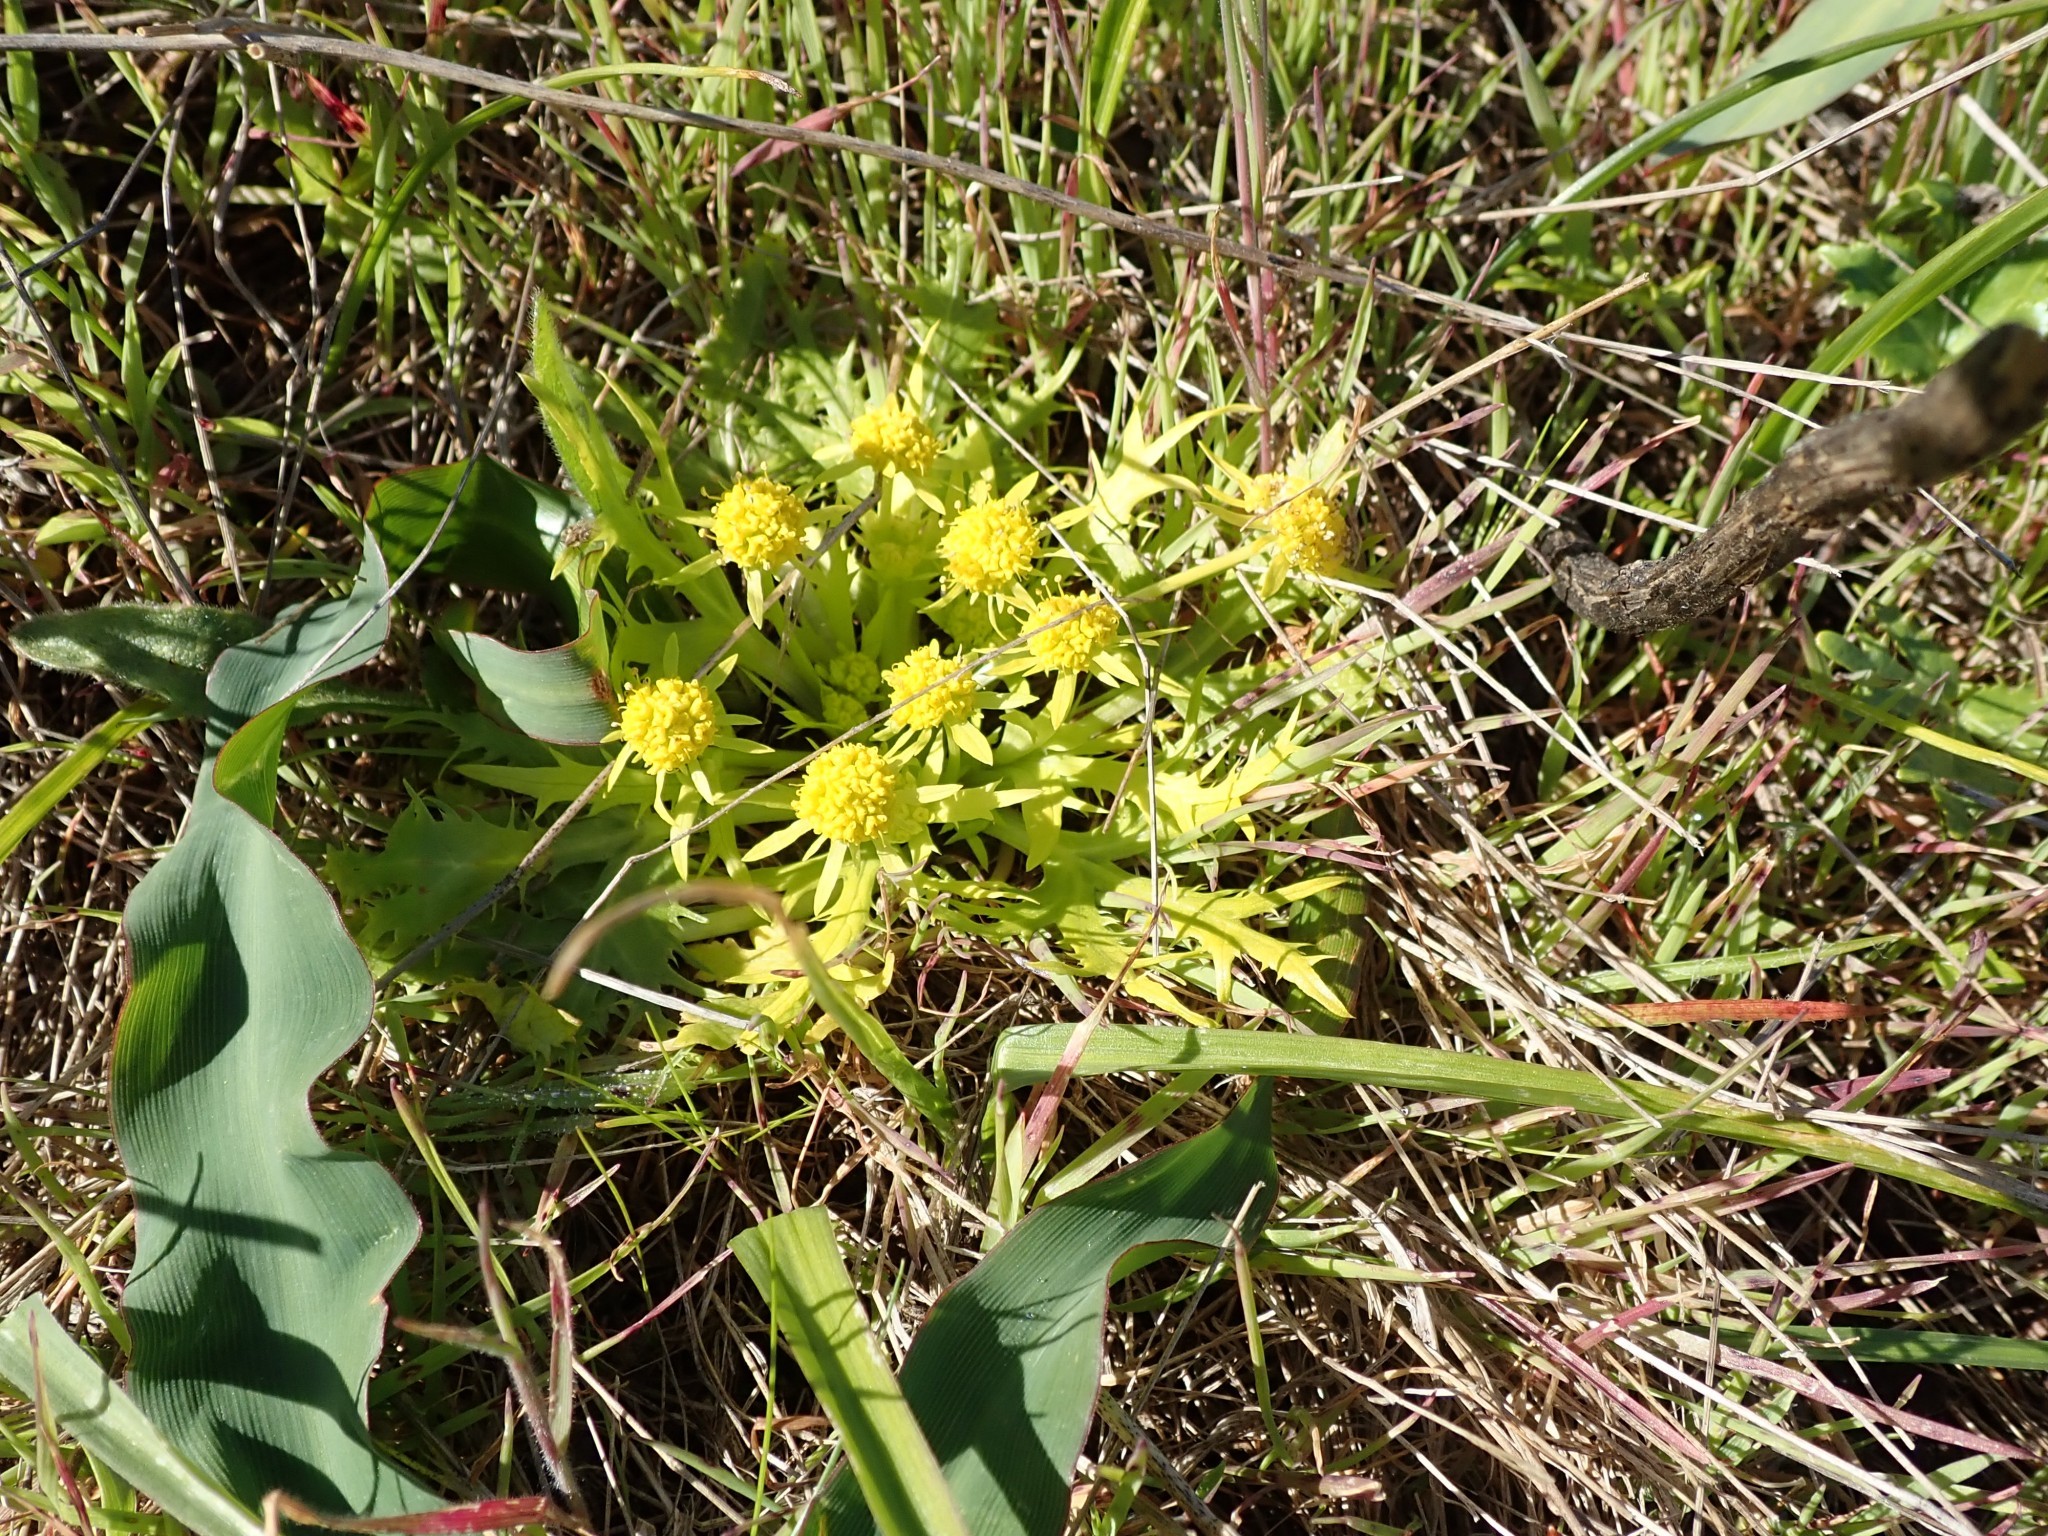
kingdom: Plantae
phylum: Tracheophyta
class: Magnoliopsida
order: Apiales
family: Apiaceae
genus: Sanicula
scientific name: Sanicula arctopoides
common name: Footsteps-of-spring
